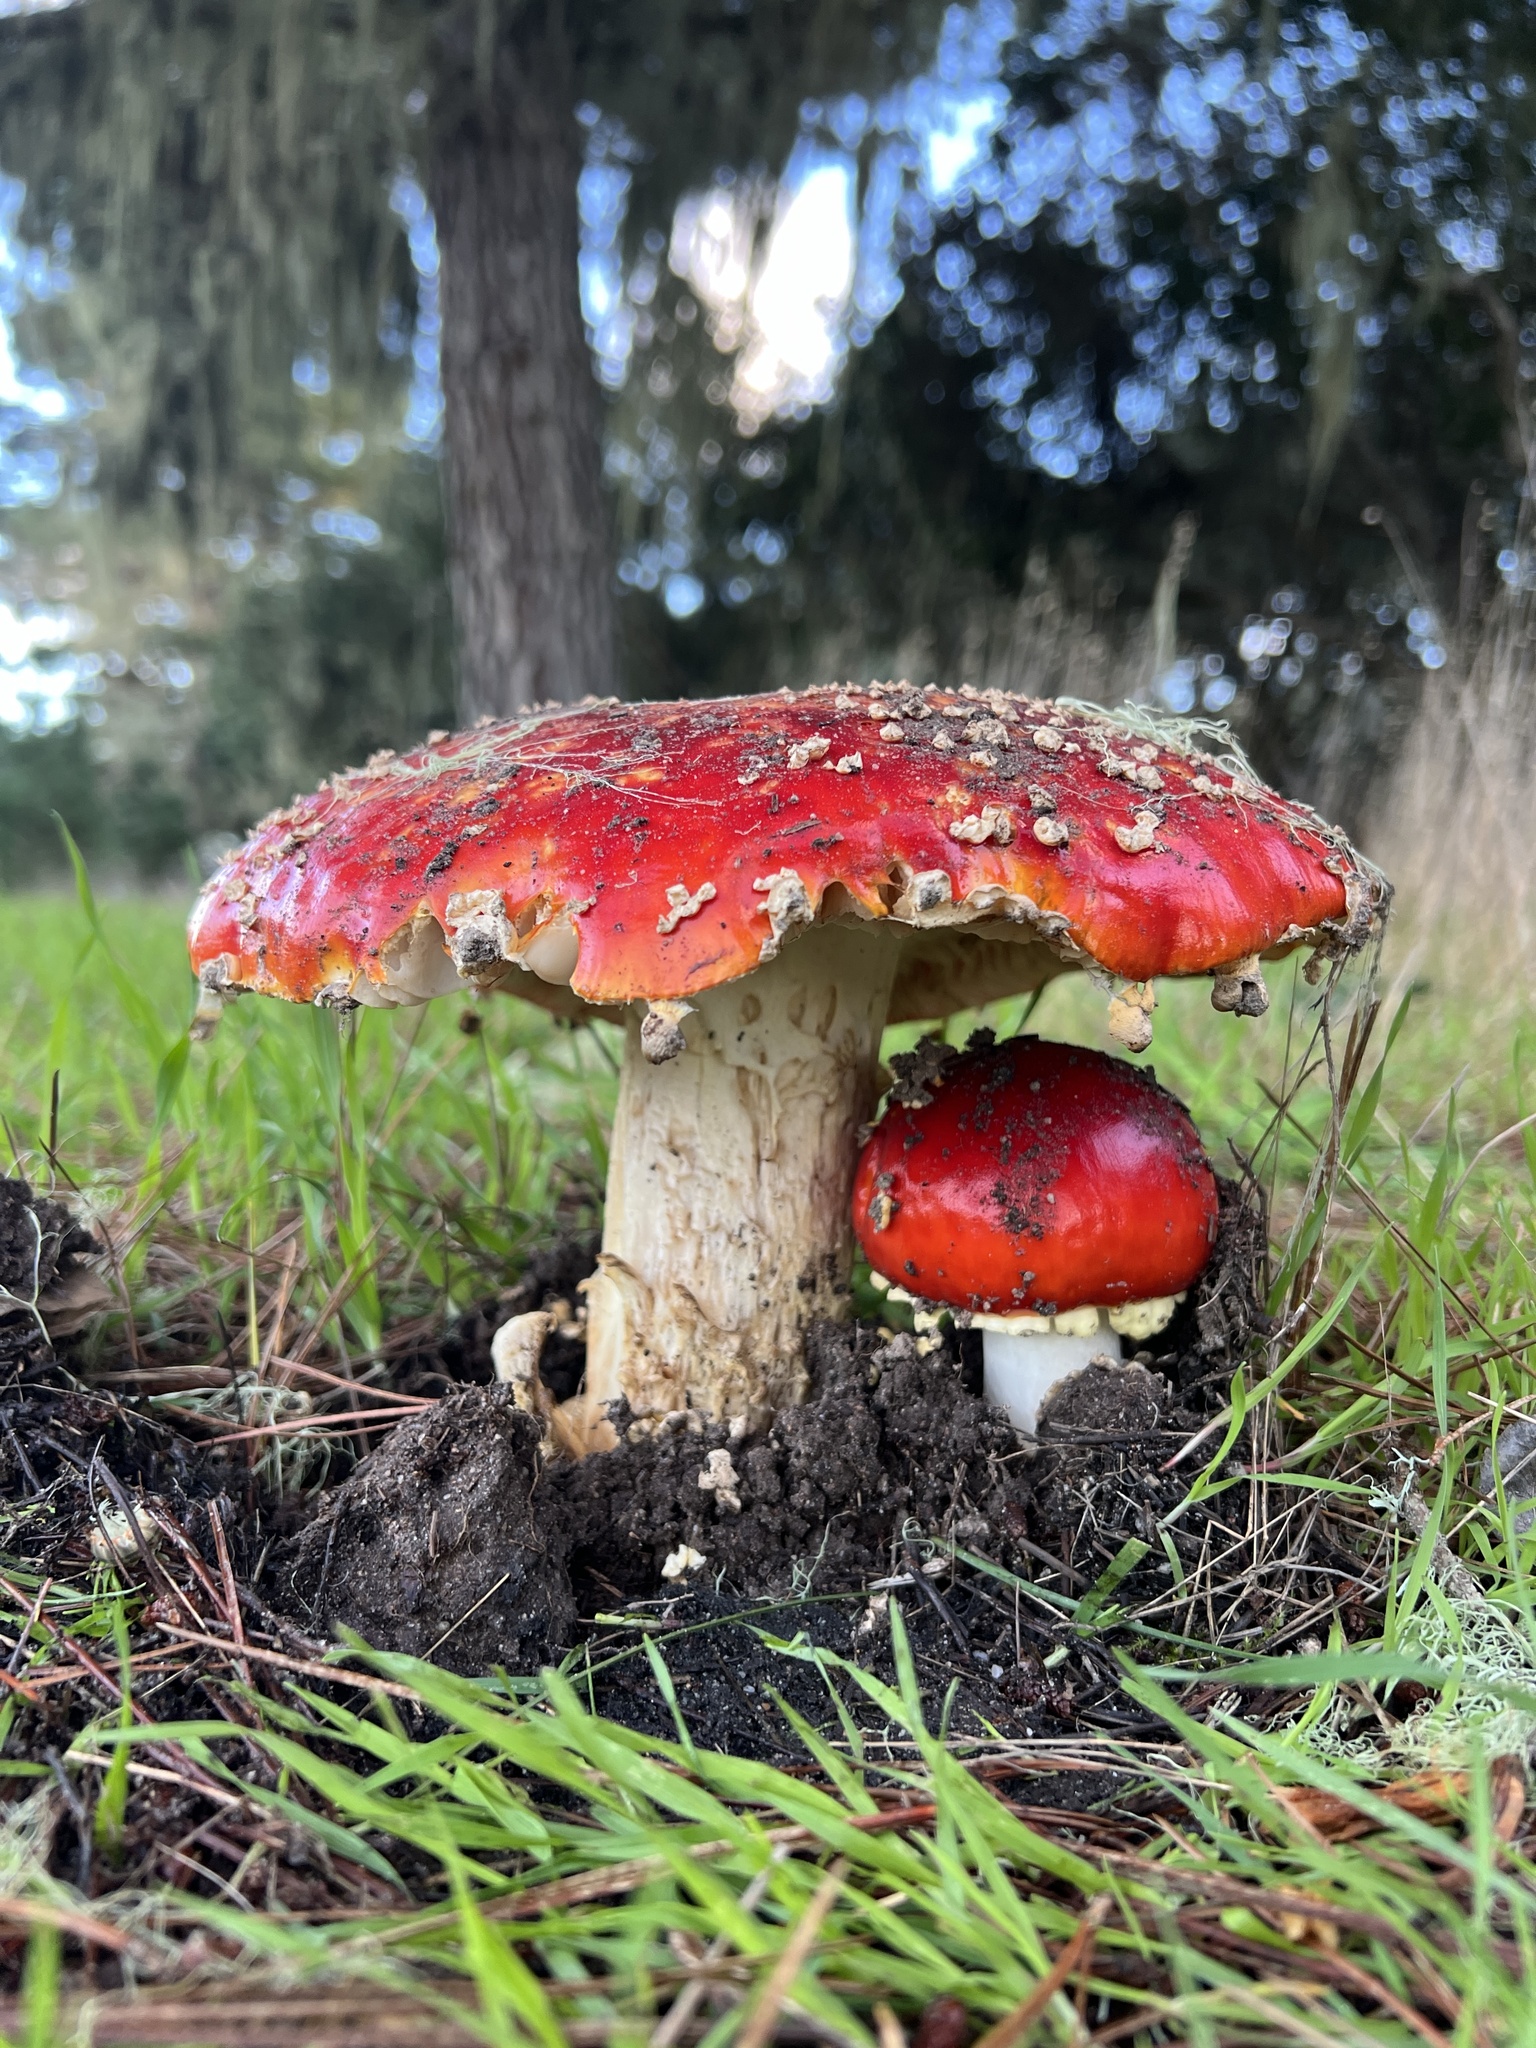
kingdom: Fungi
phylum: Basidiomycota
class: Agaricomycetes
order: Agaricales
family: Amanitaceae
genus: Amanita
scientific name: Amanita muscaria
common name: Fly agaric
